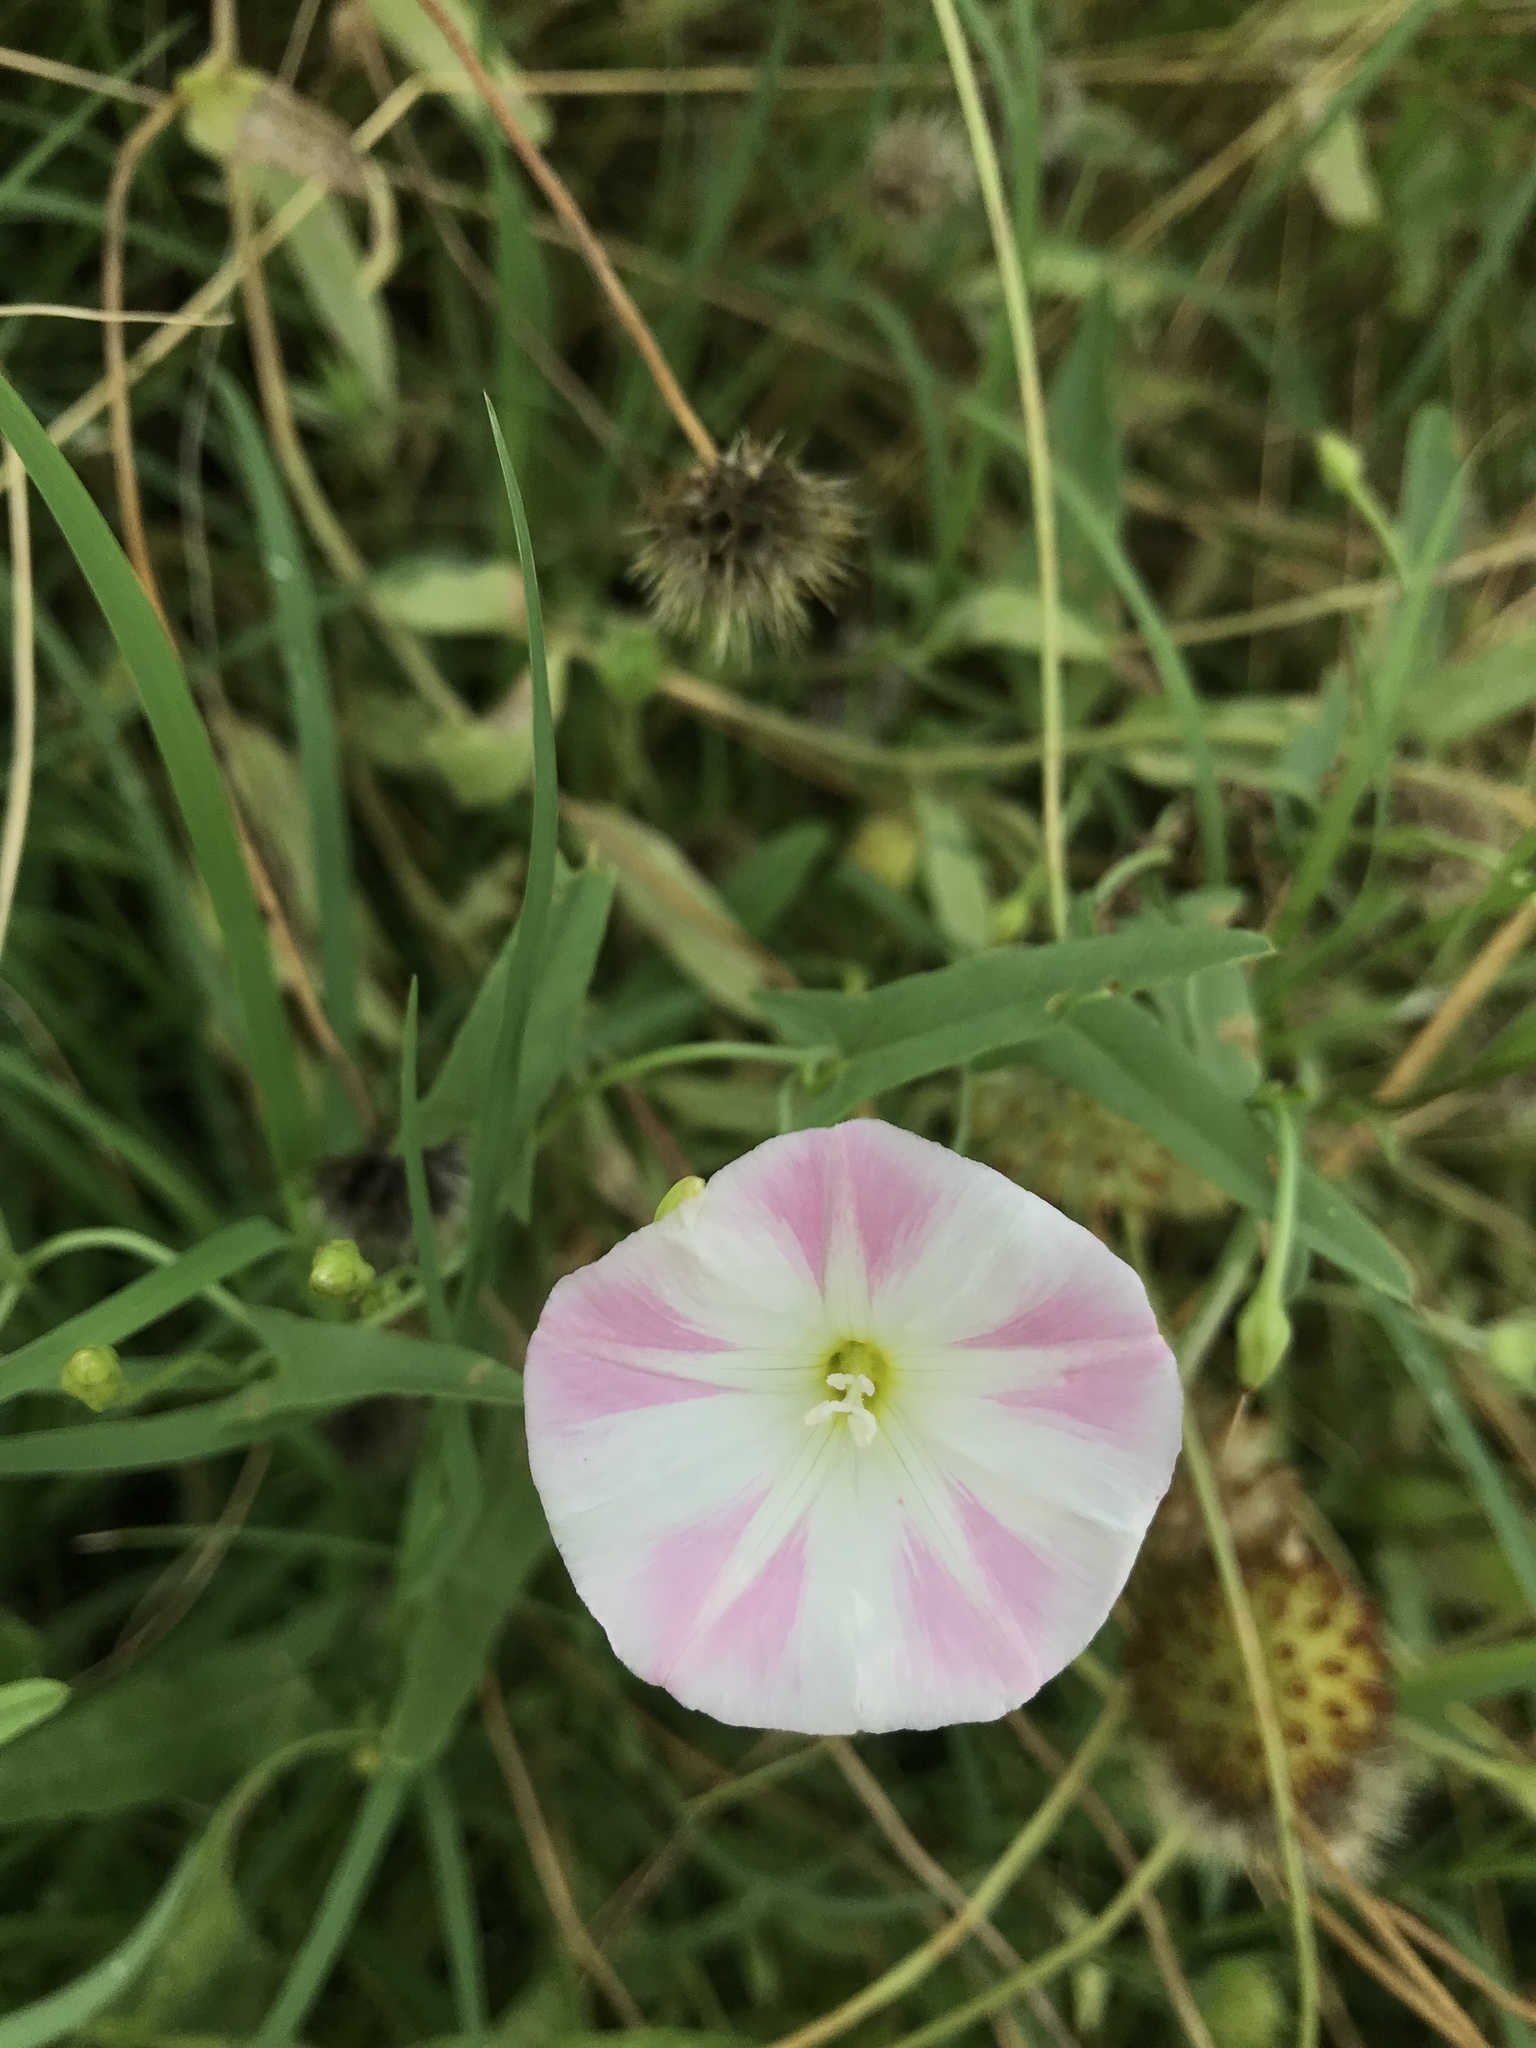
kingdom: Plantae
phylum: Tracheophyta
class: Magnoliopsida
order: Solanales
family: Convolvulaceae
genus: Convolvulus
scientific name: Convolvulus arvensis
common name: Field bindweed
